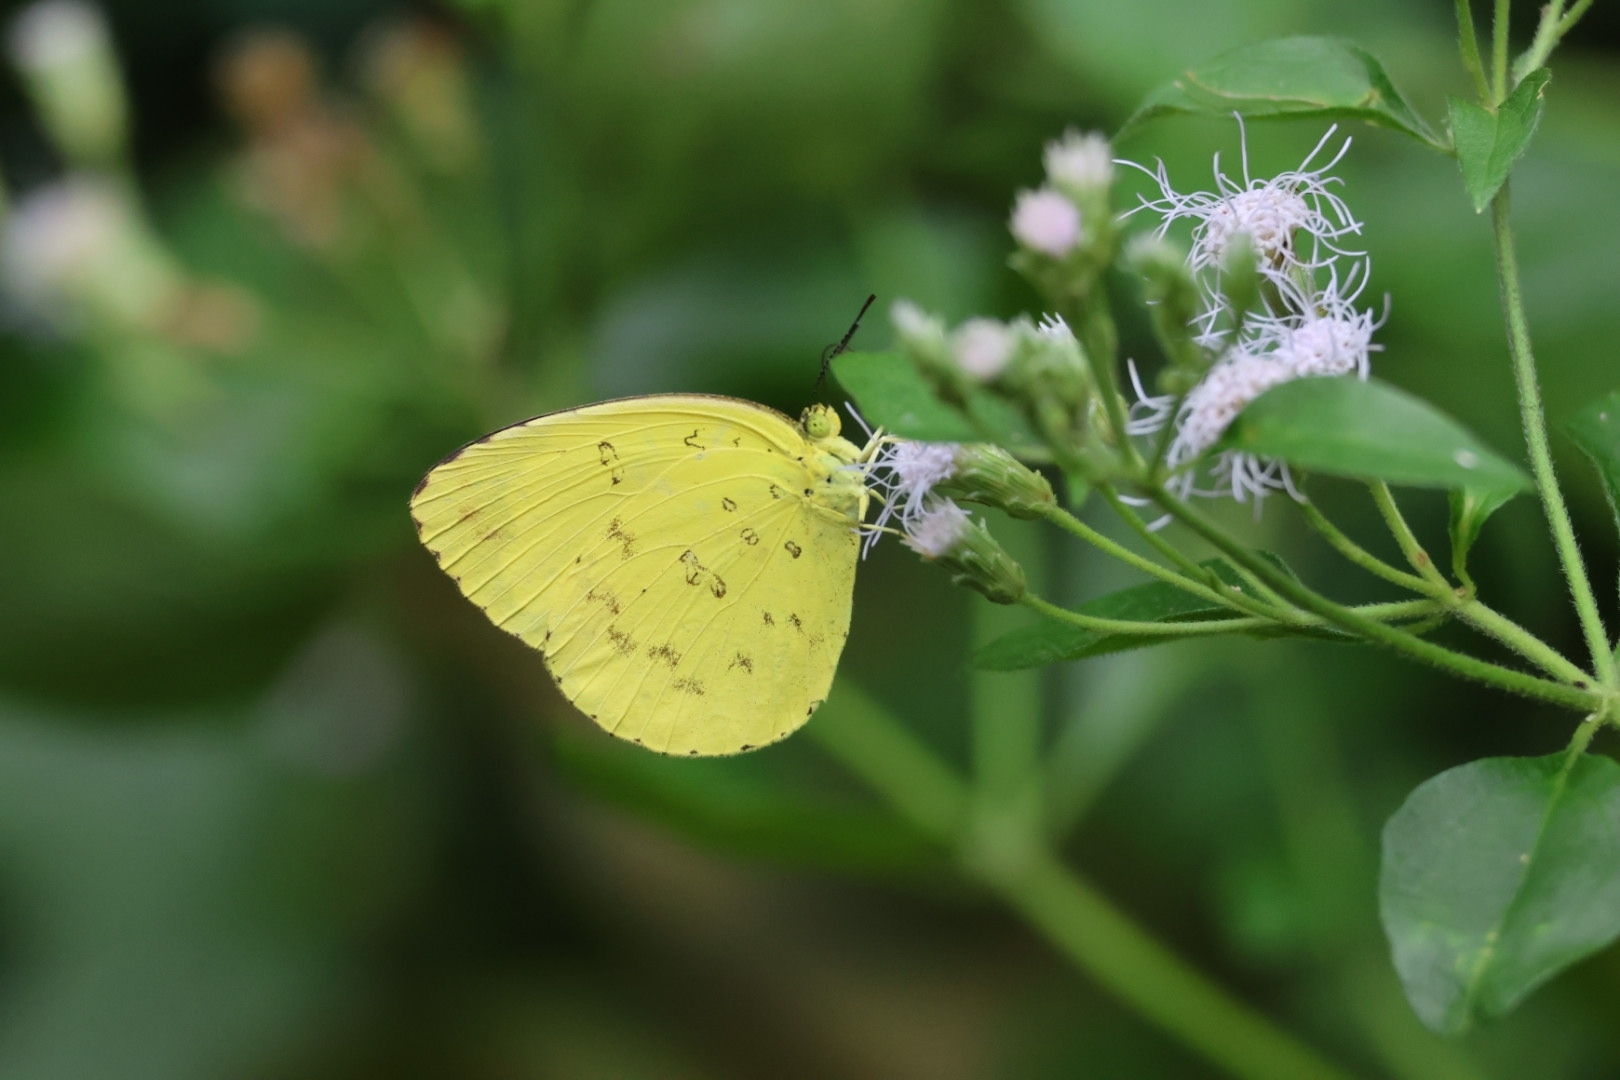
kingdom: Animalia
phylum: Arthropoda
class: Insecta
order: Lepidoptera
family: Pieridae
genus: Eurema
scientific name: Eurema blanda
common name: Three-spot grass yellow
